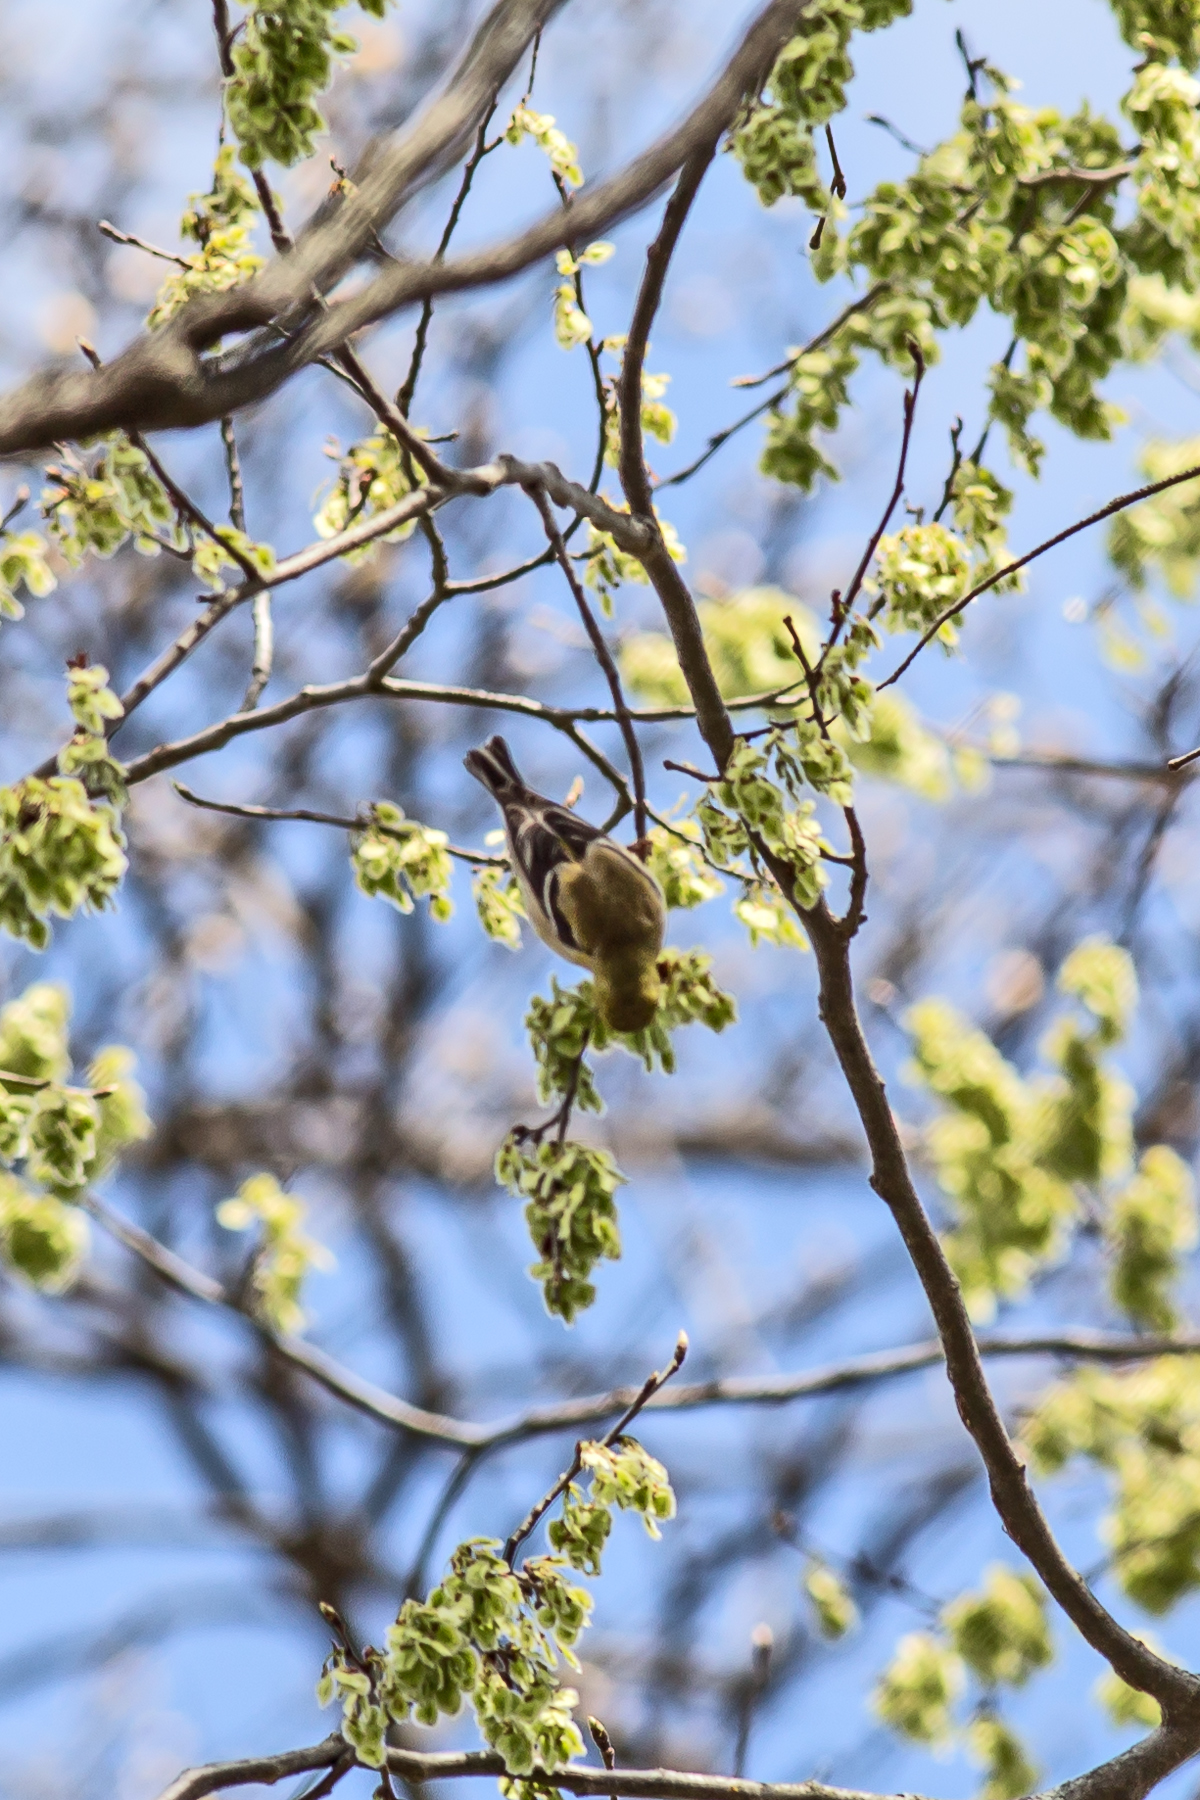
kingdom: Animalia
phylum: Chordata
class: Aves
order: Passeriformes
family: Fringillidae
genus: Spinus
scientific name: Spinus tristis
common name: American goldfinch
